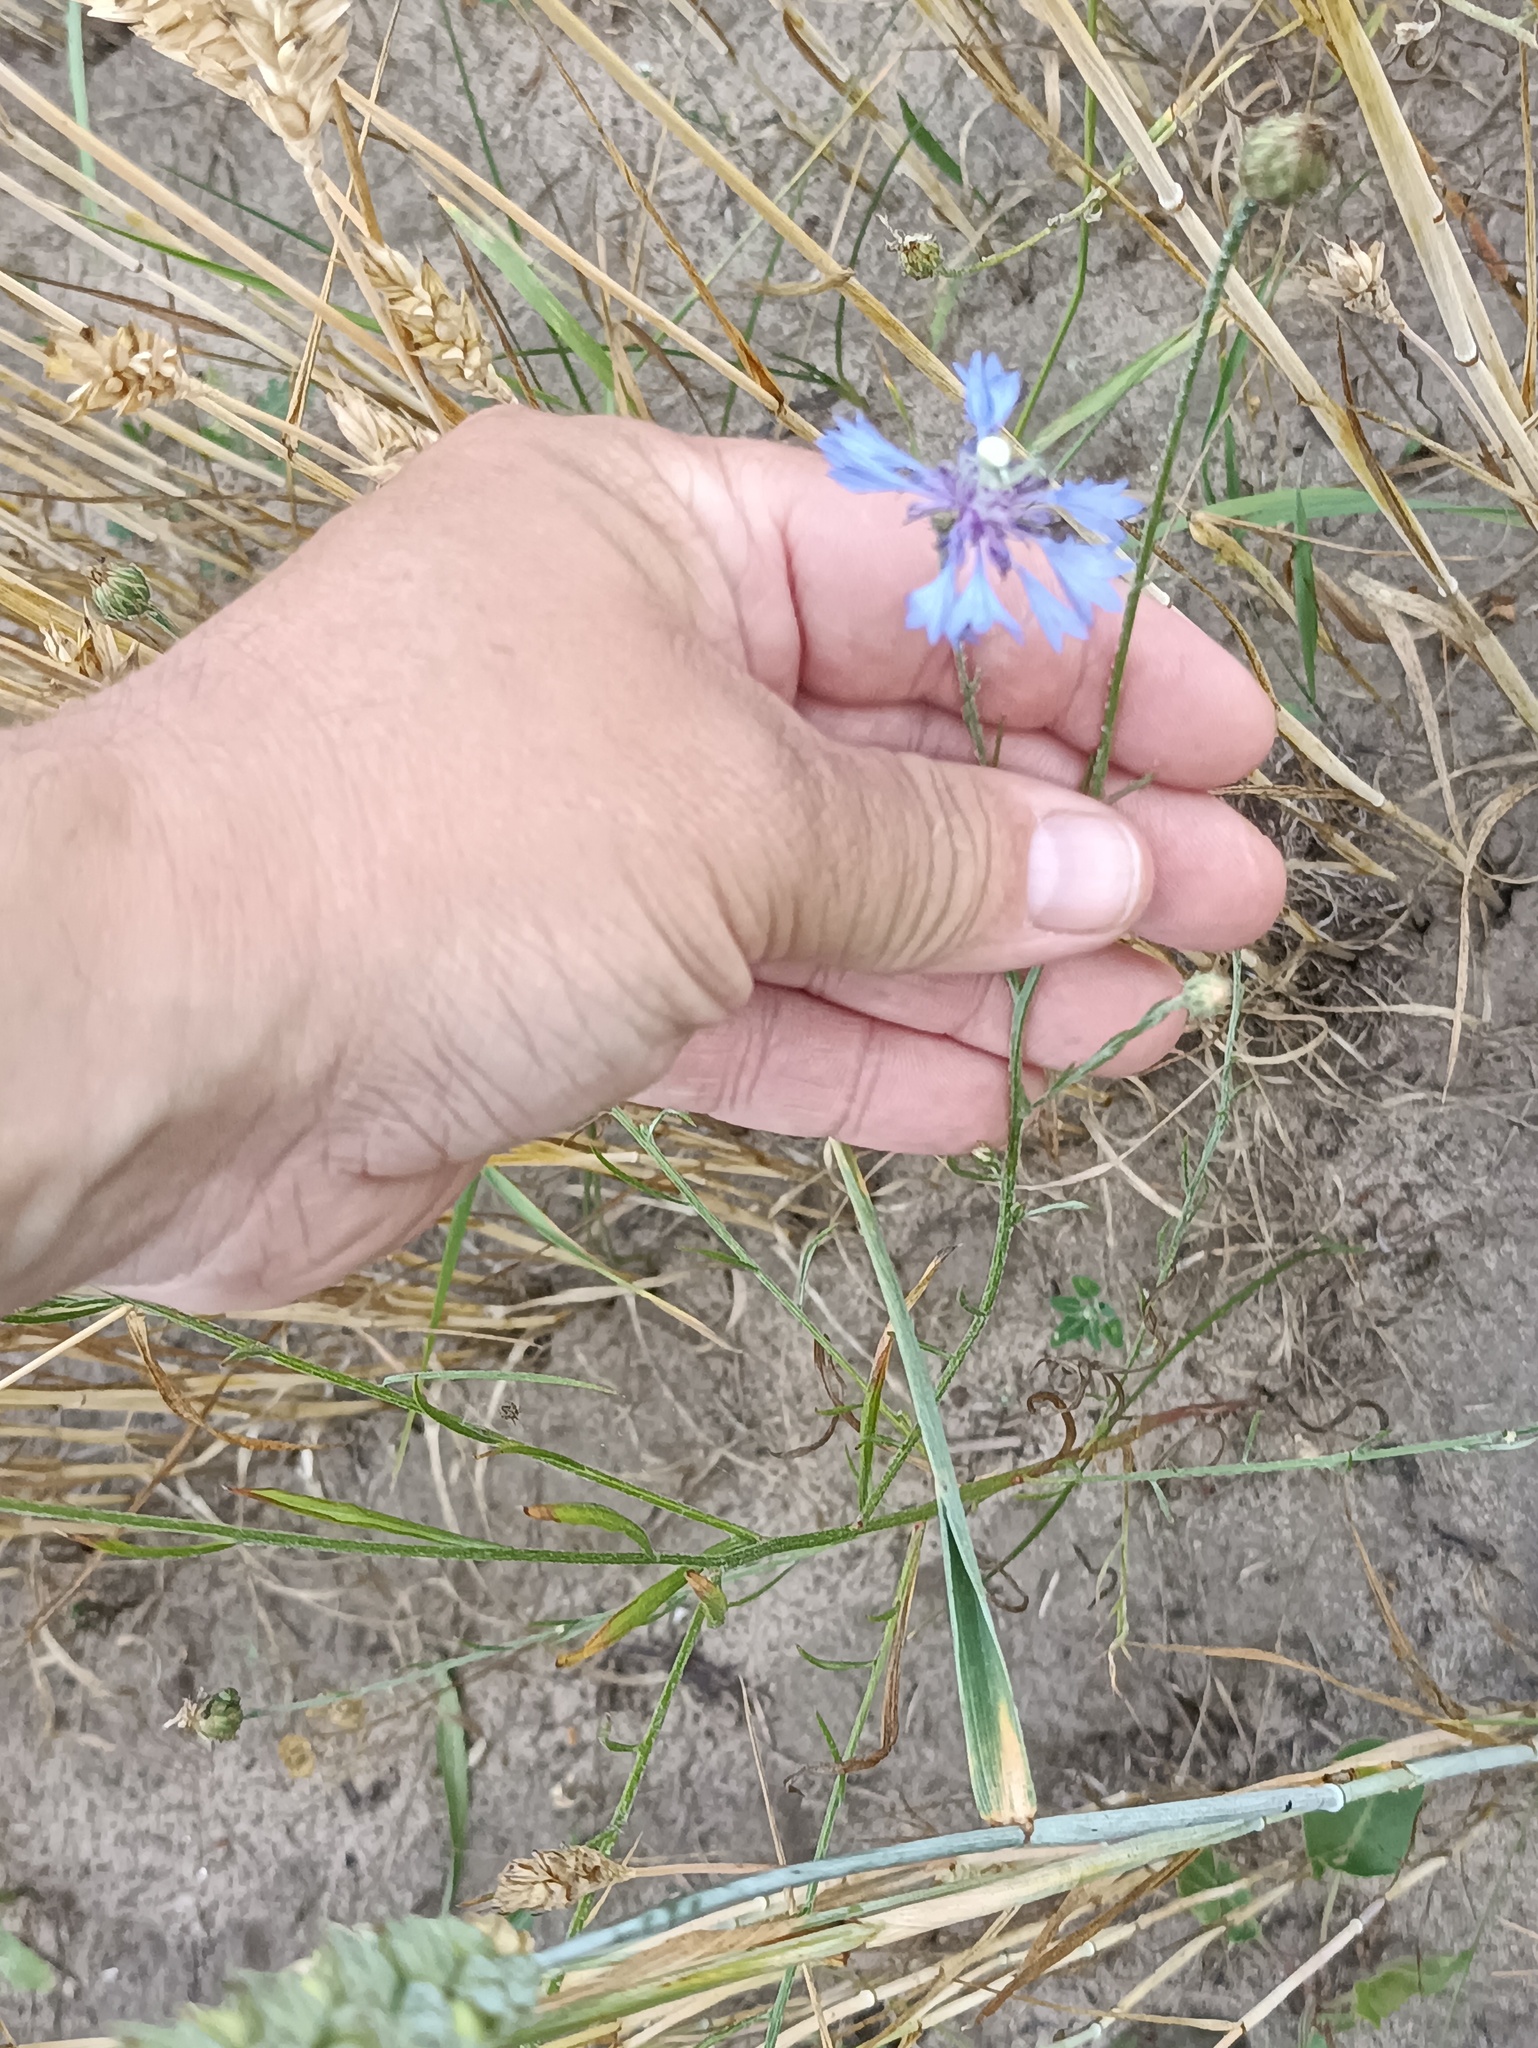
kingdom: Plantae
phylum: Tracheophyta
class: Magnoliopsida
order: Asterales
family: Asteraceae
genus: Centaurea
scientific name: Centaurea cyanus
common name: Cornflower
